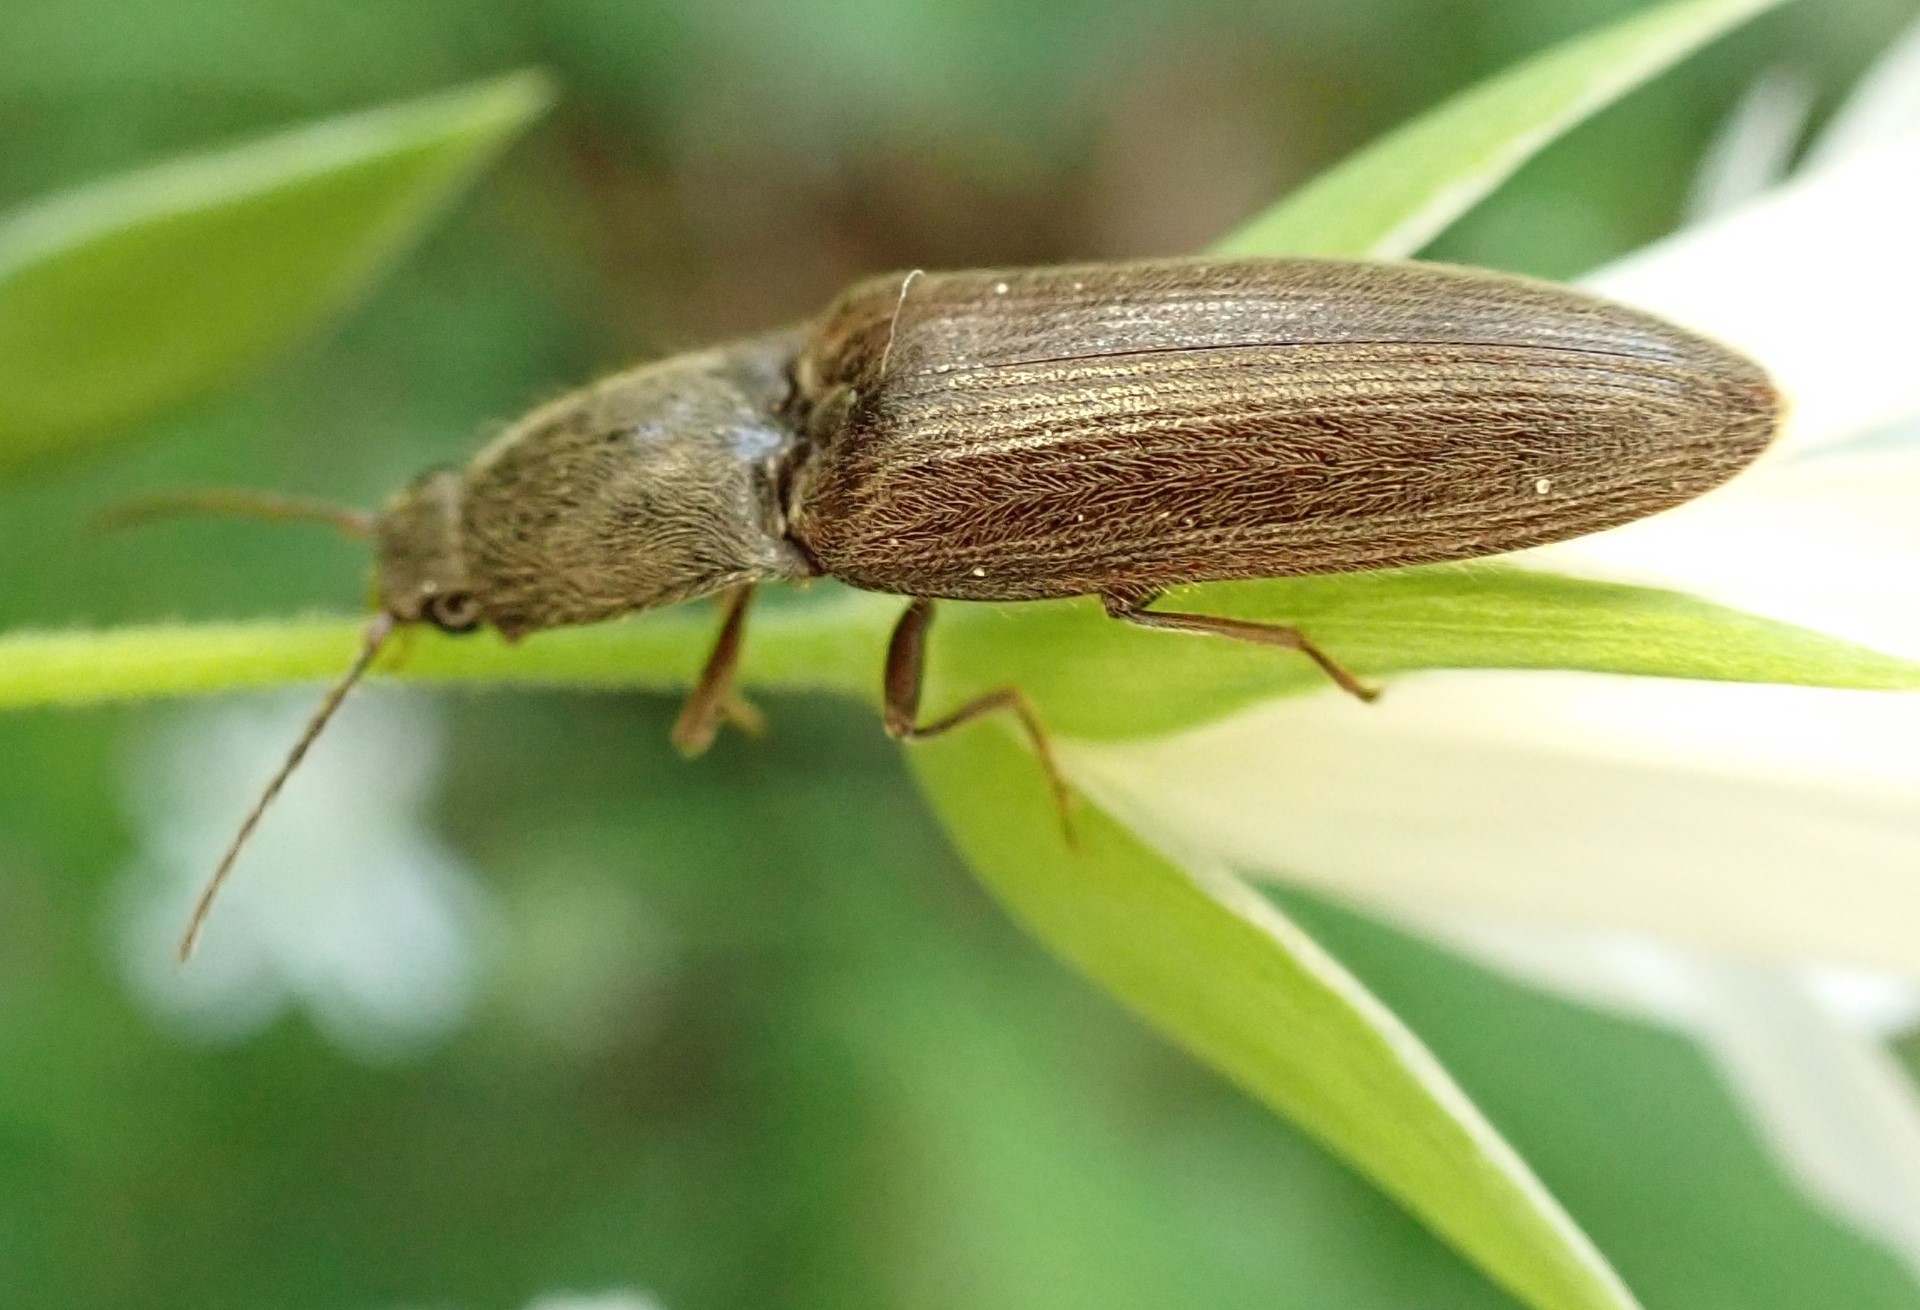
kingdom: Animalia
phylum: Arthropoda
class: Insecta
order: Coleoptera
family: Elateridae
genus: Athous
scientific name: Athous haemorrhoidalis
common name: Red-brown click beetle
